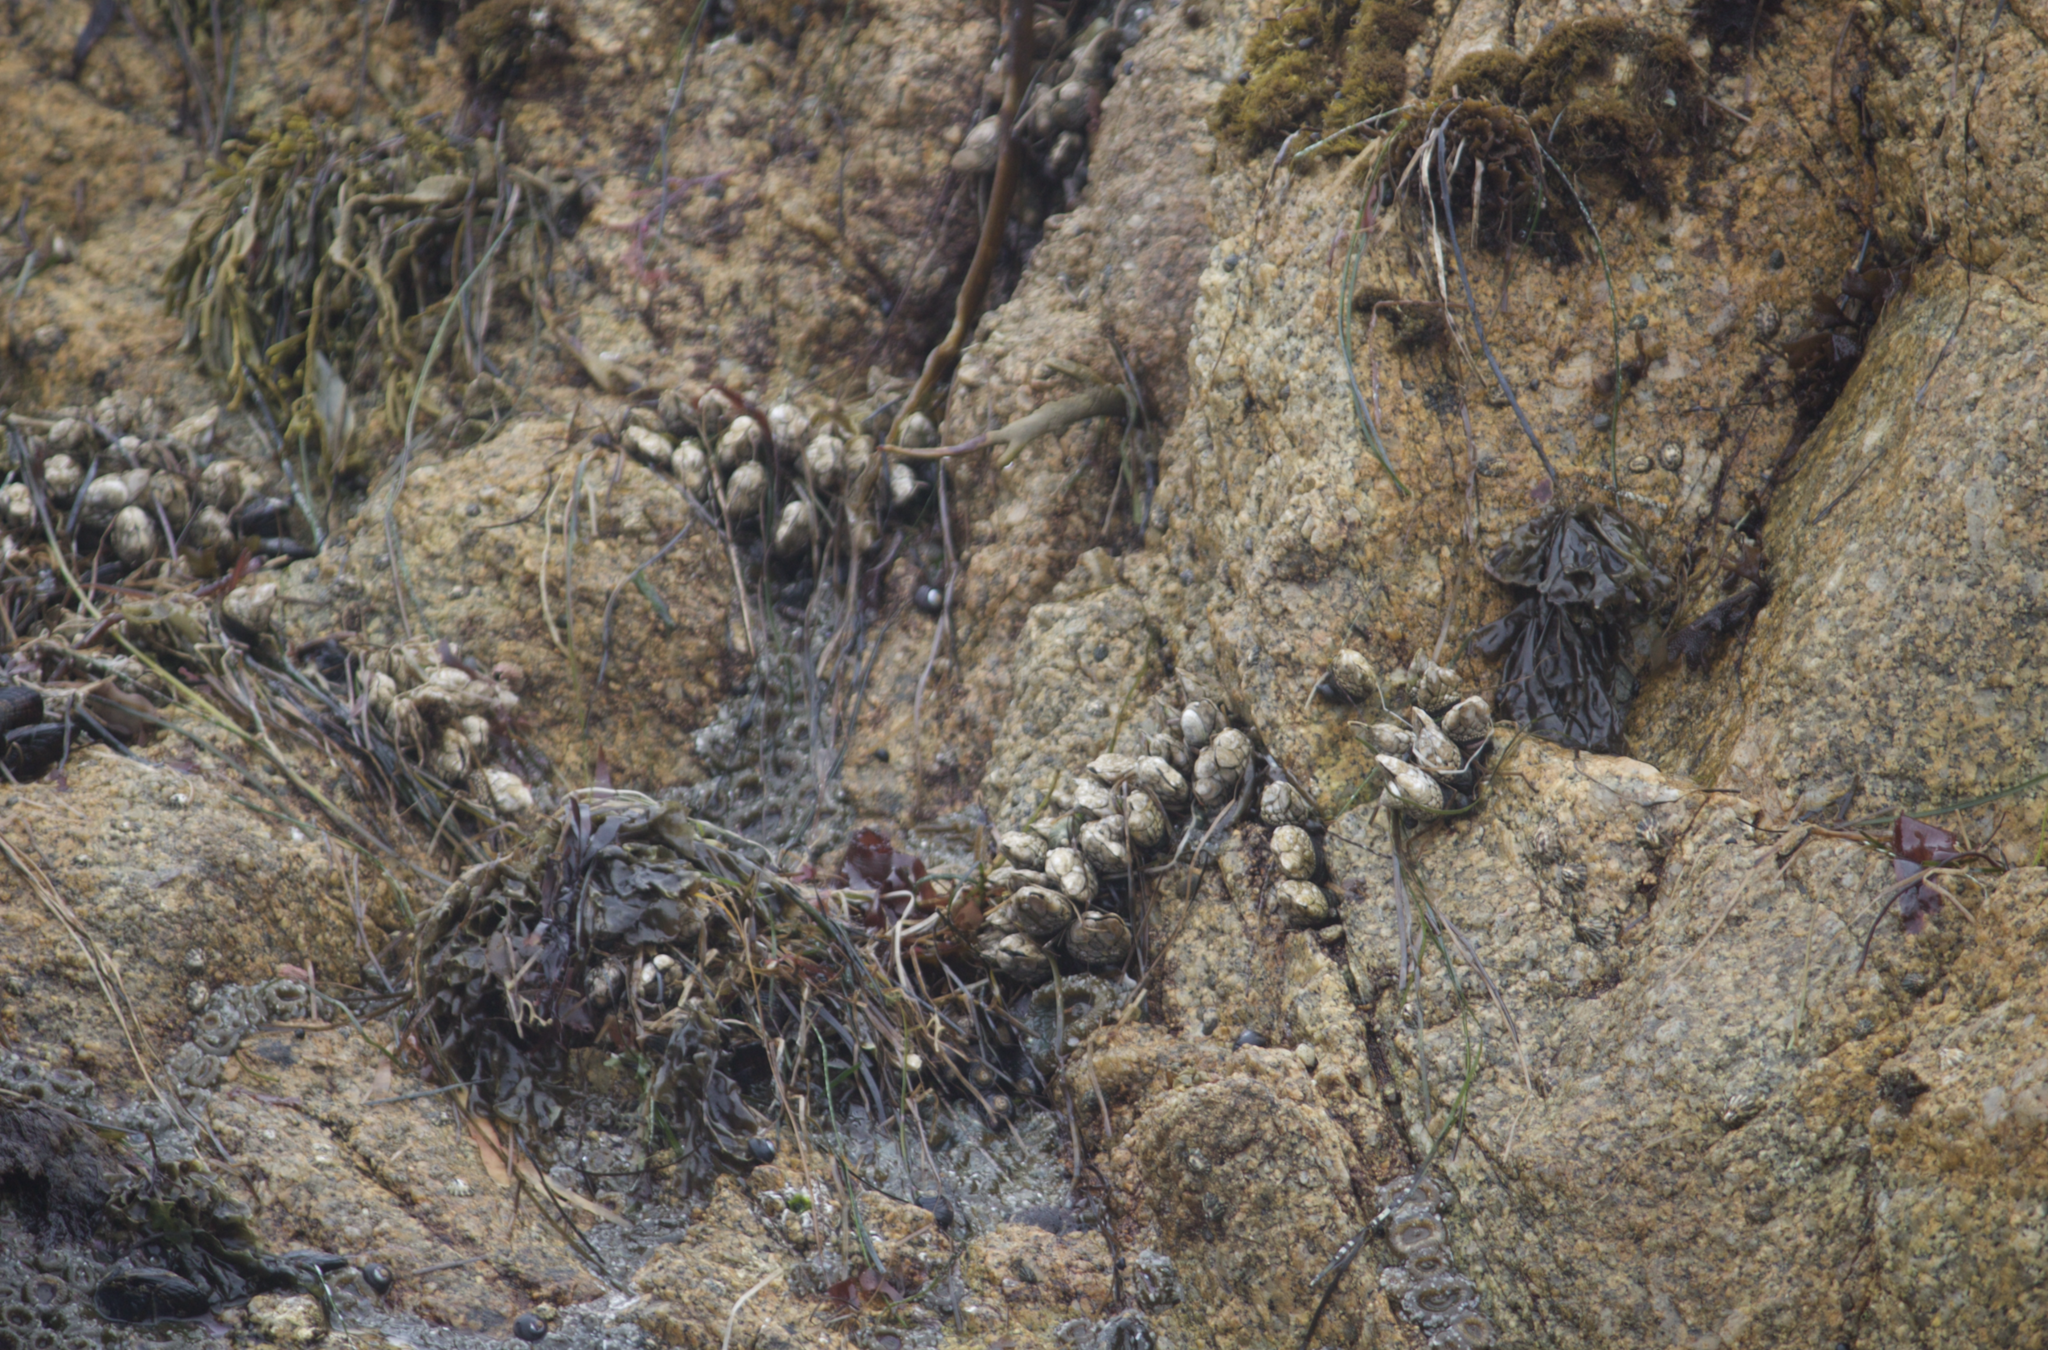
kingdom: Animalia
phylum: Arthropoda
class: Maxillopoda
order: Pedunculata
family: Pollicipedidae
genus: Pollicipes
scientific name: Pollicipes polymerus
